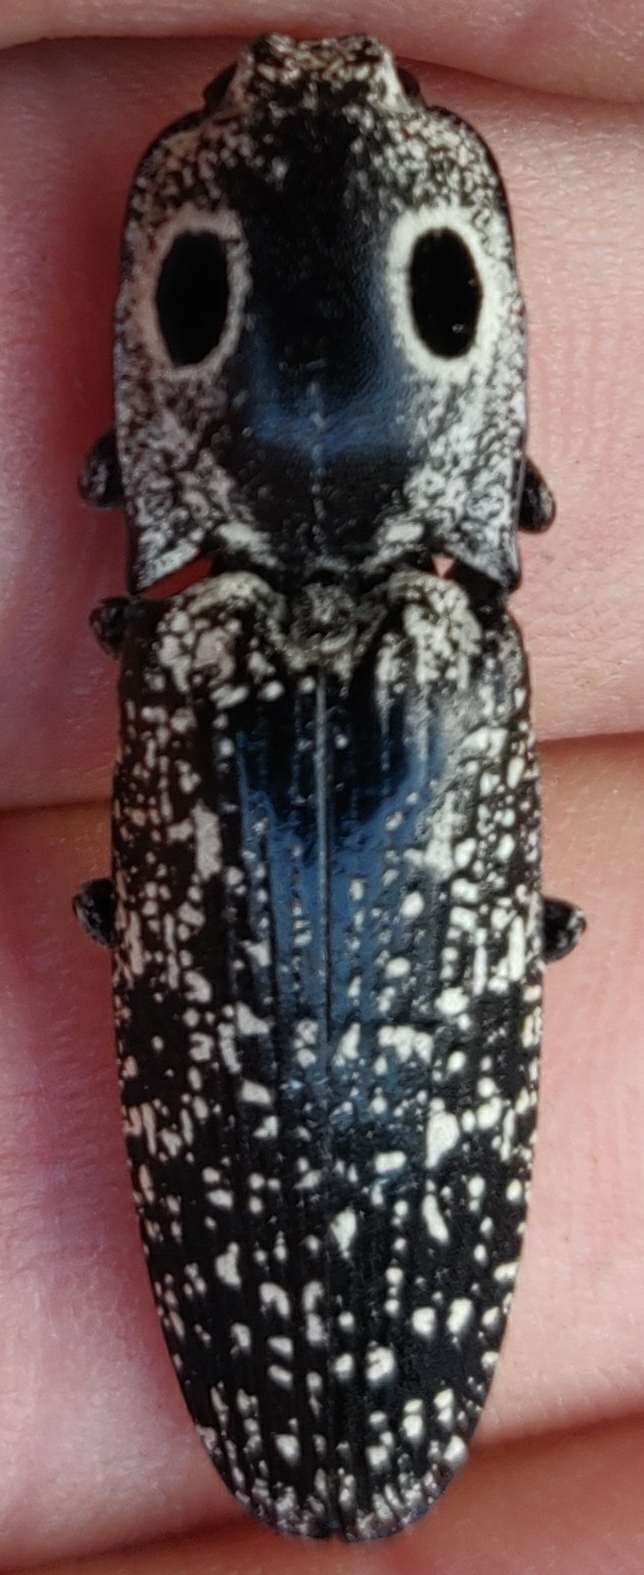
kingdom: Animalia
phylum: Arthropoda
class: Insecta
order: Coleoptera
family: Elateridae
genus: Alaus
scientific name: Alaus oculatus
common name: Eastern eyed click beetle
